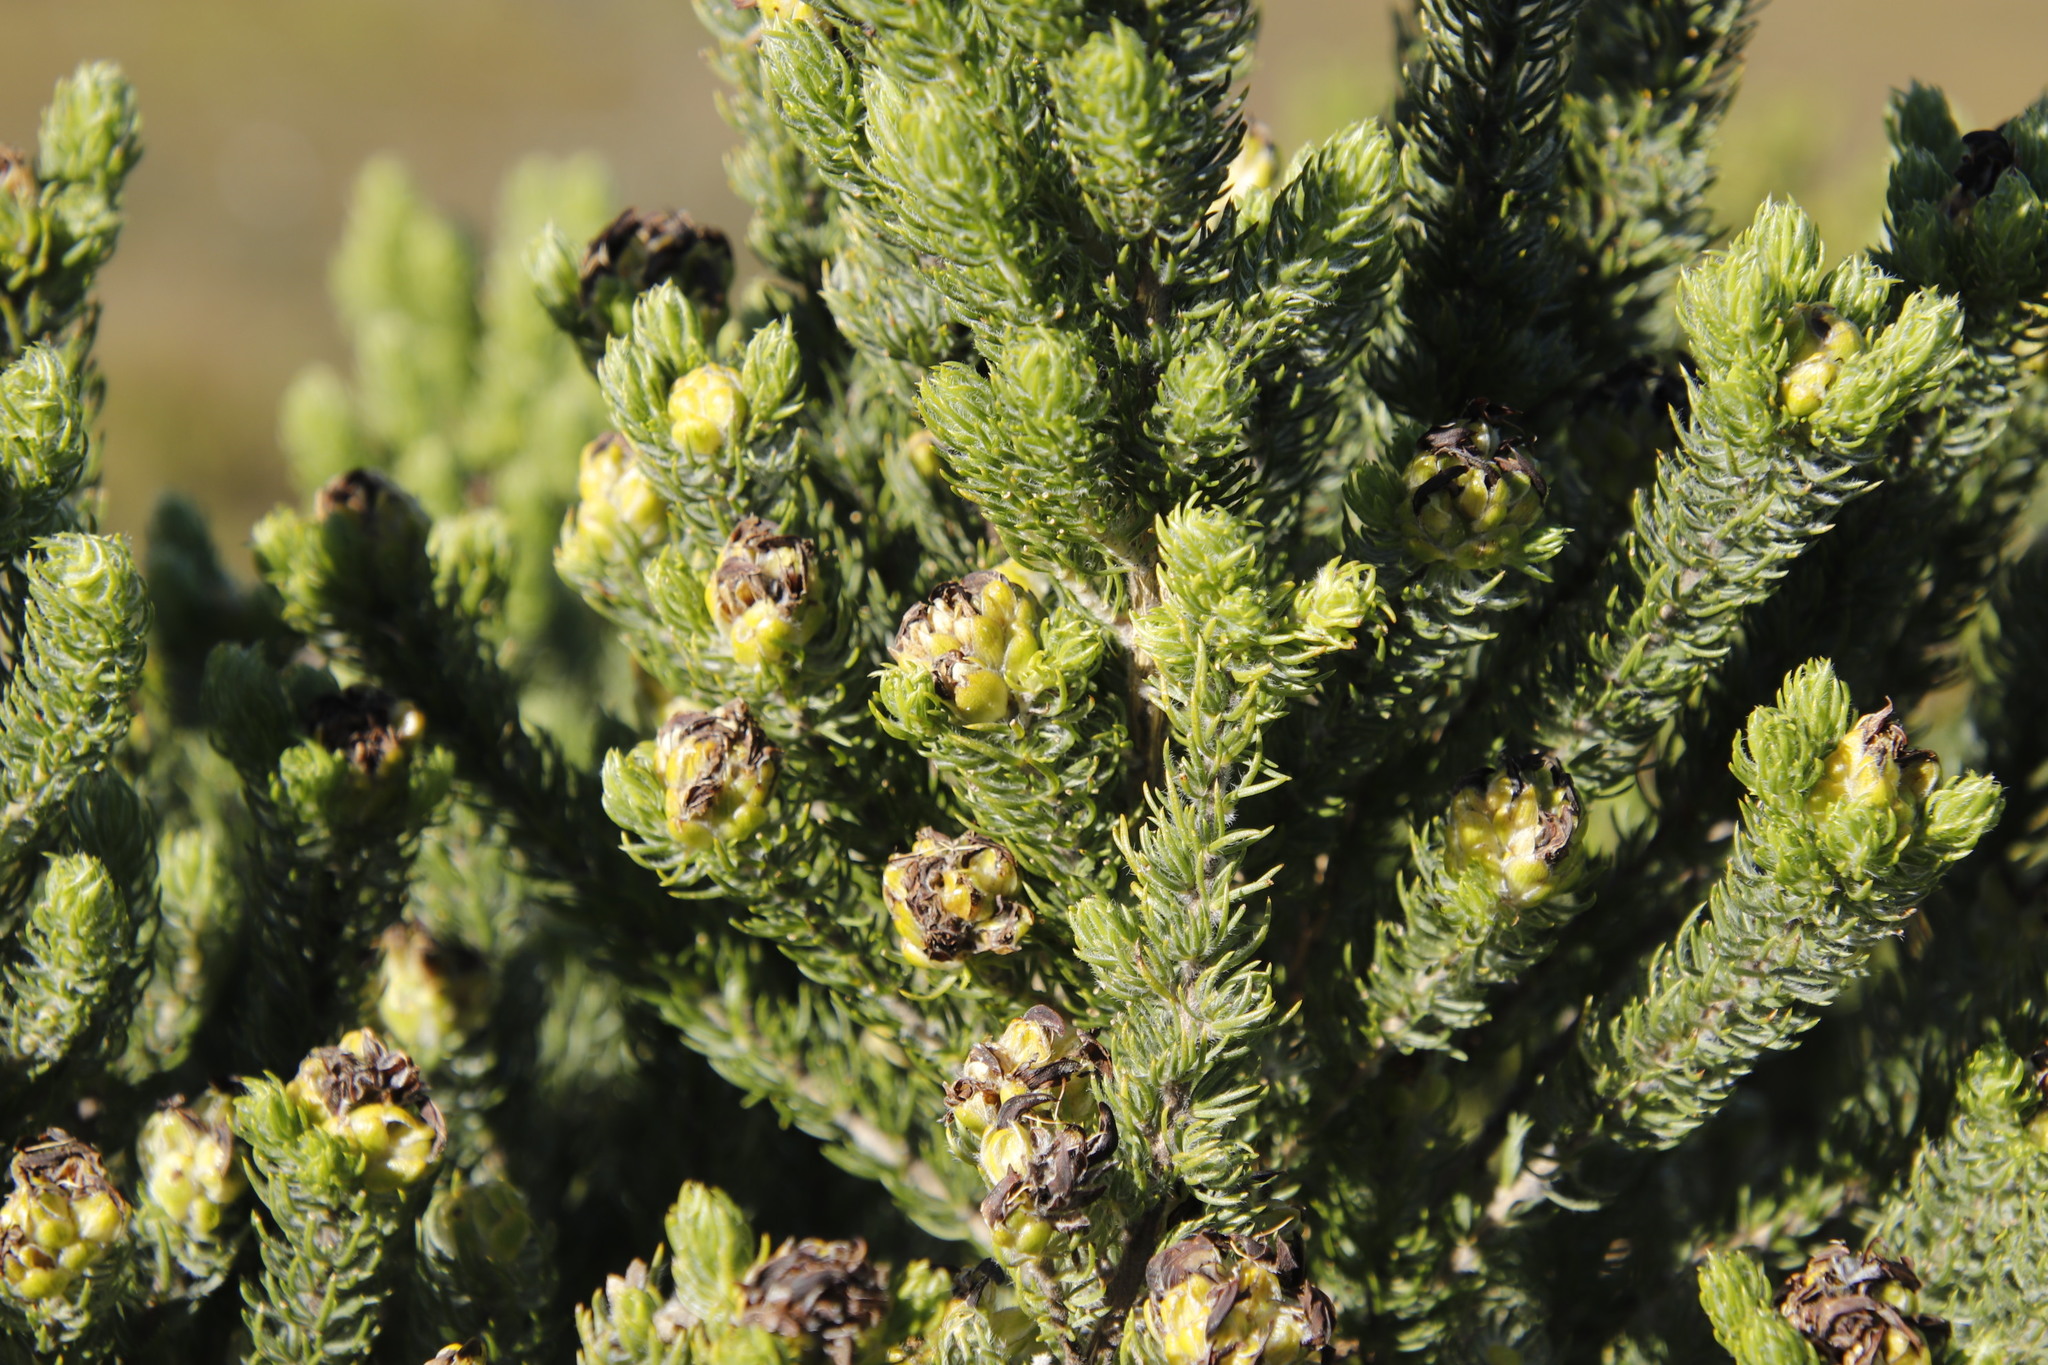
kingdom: Plantae
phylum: Tracheophyta
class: Magnoliopsida
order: Fabales
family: Fabaceae
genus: Aspalathus
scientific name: Aspalathus capitata
